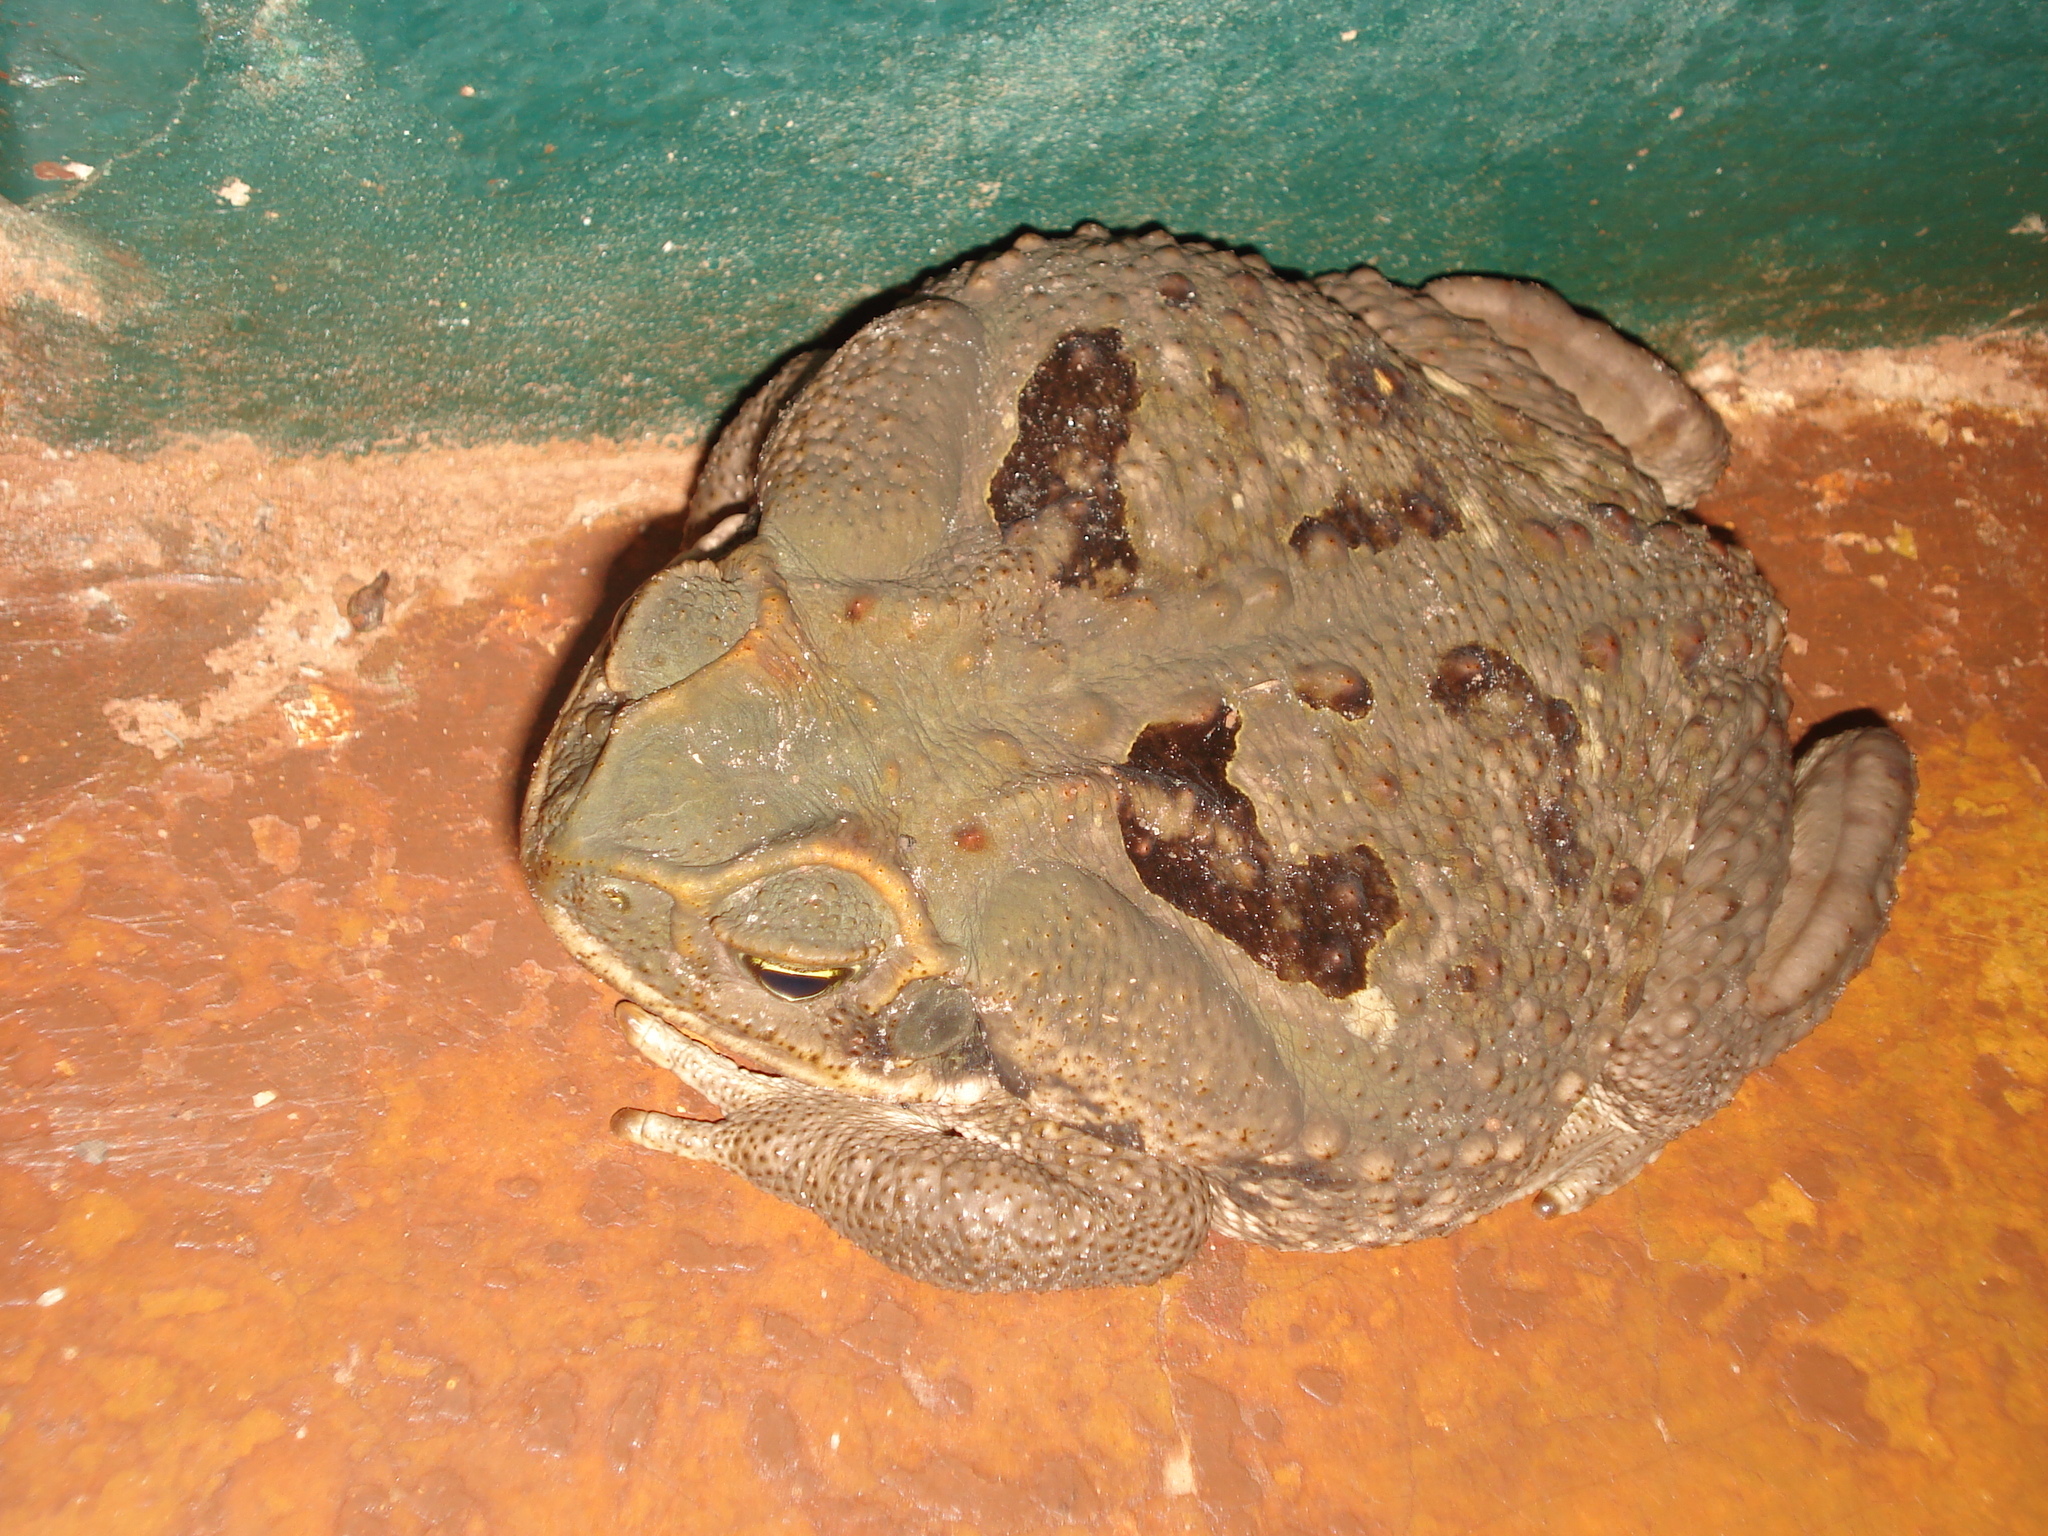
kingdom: Animalia
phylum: Chordata
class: Amphibia
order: Anura
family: Bufonidae
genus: Rhinella
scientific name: Rhinella diptycha
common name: Cope's toad
